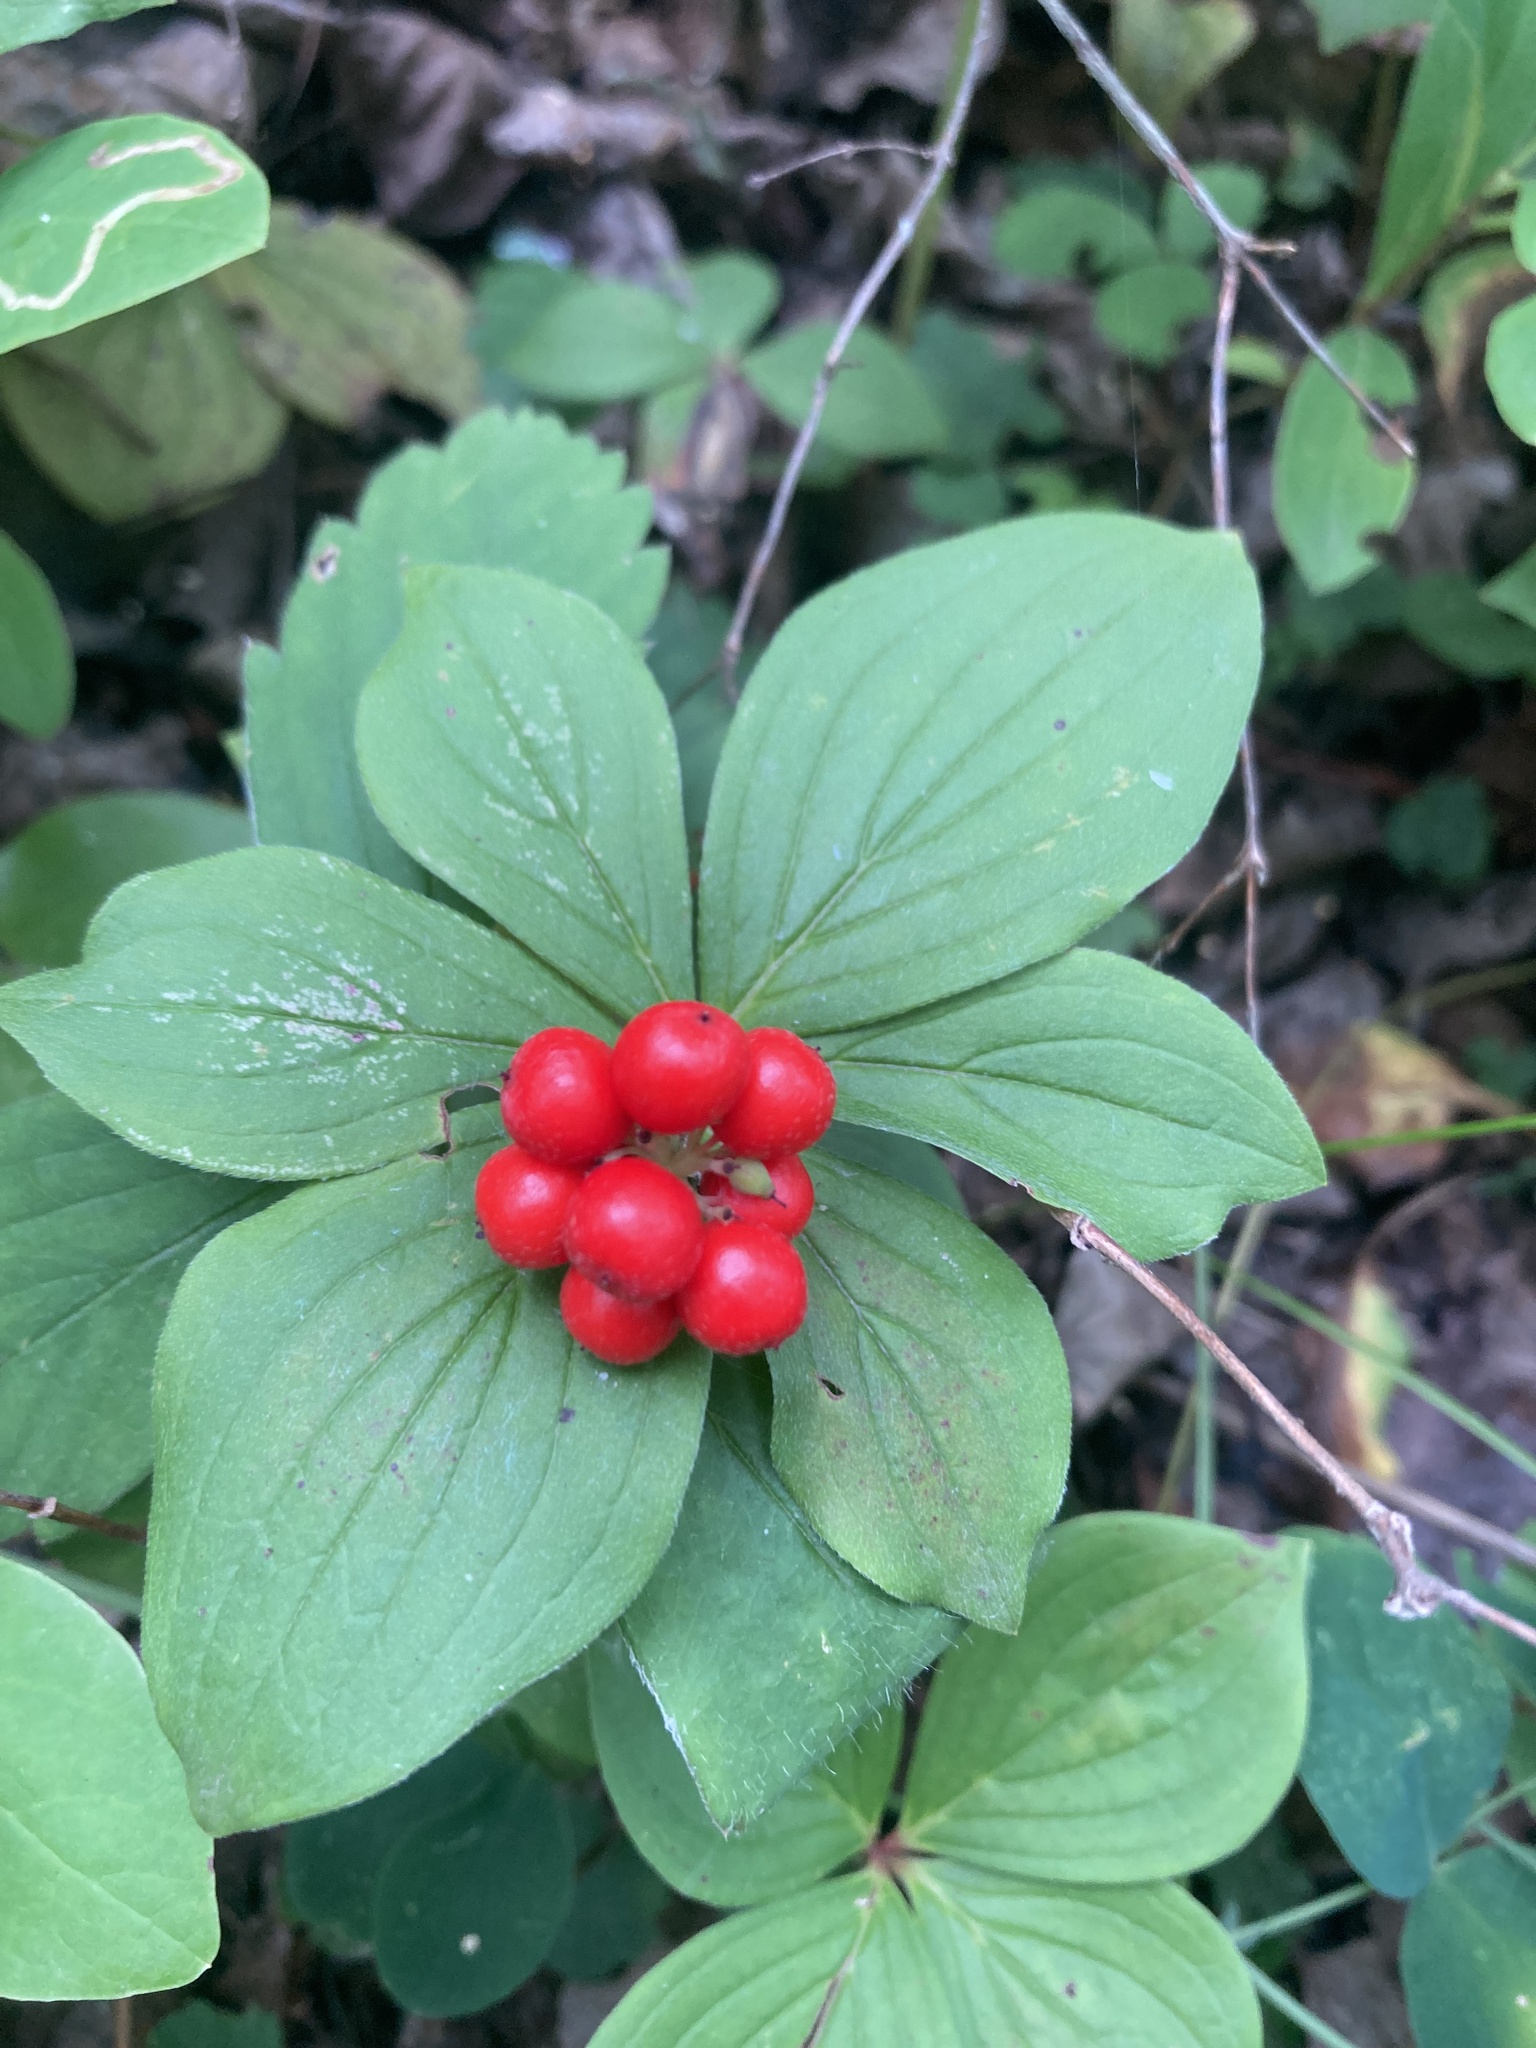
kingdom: Plantae
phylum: Tracheophyta
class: Magnoliopsida
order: Cornales
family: Cornaceae
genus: Cornus
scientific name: Cornus canadensis
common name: Creeping dogwood
